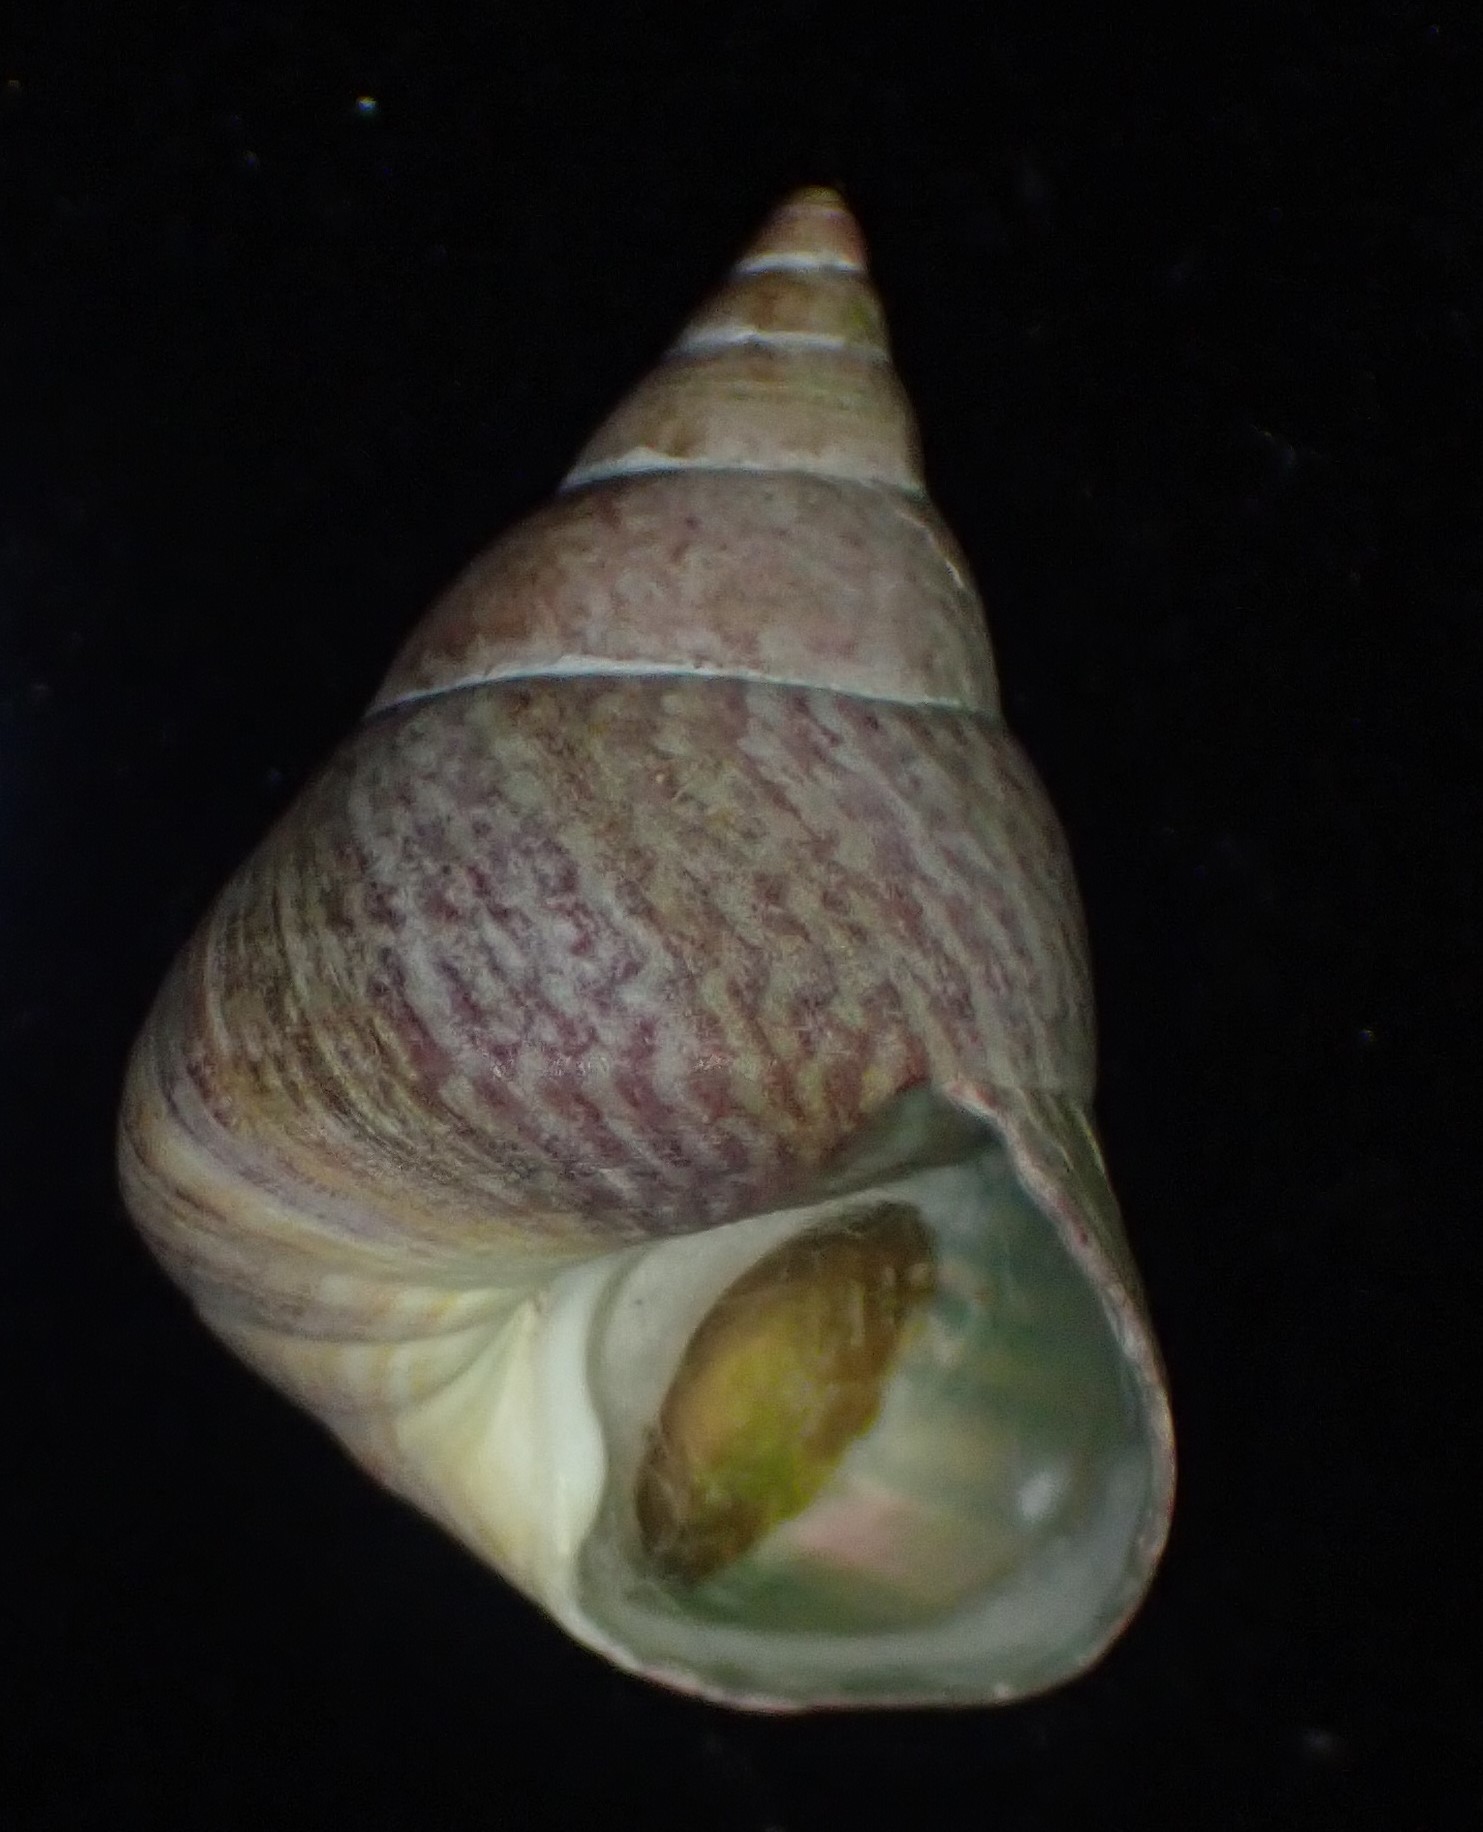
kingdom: Animalia
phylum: Mollusca
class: Gastropoda
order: Trochida
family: Trochidae
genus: Cantharidus
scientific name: Cantharidus opalus
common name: Opal jewel topsnail
